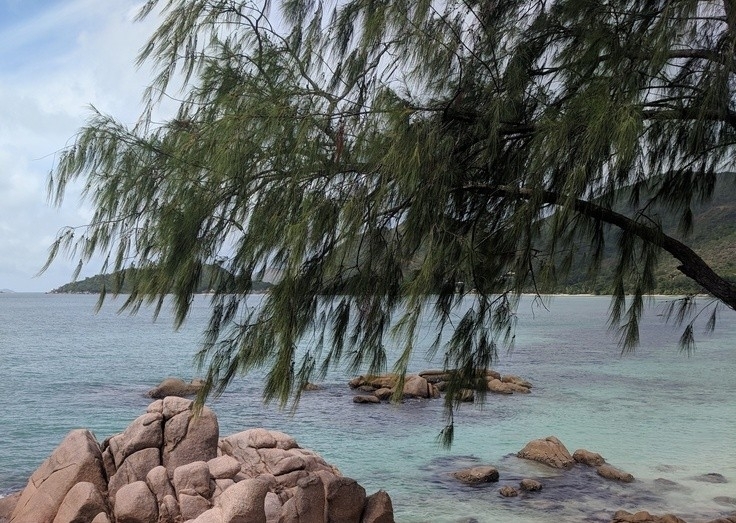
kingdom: Plantae
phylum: Tracheophyta
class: Magnoliopsida
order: Fagales
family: Casuarinaceae
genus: Casuarina
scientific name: Casuarina equisetifolia
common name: Beach sheoak
